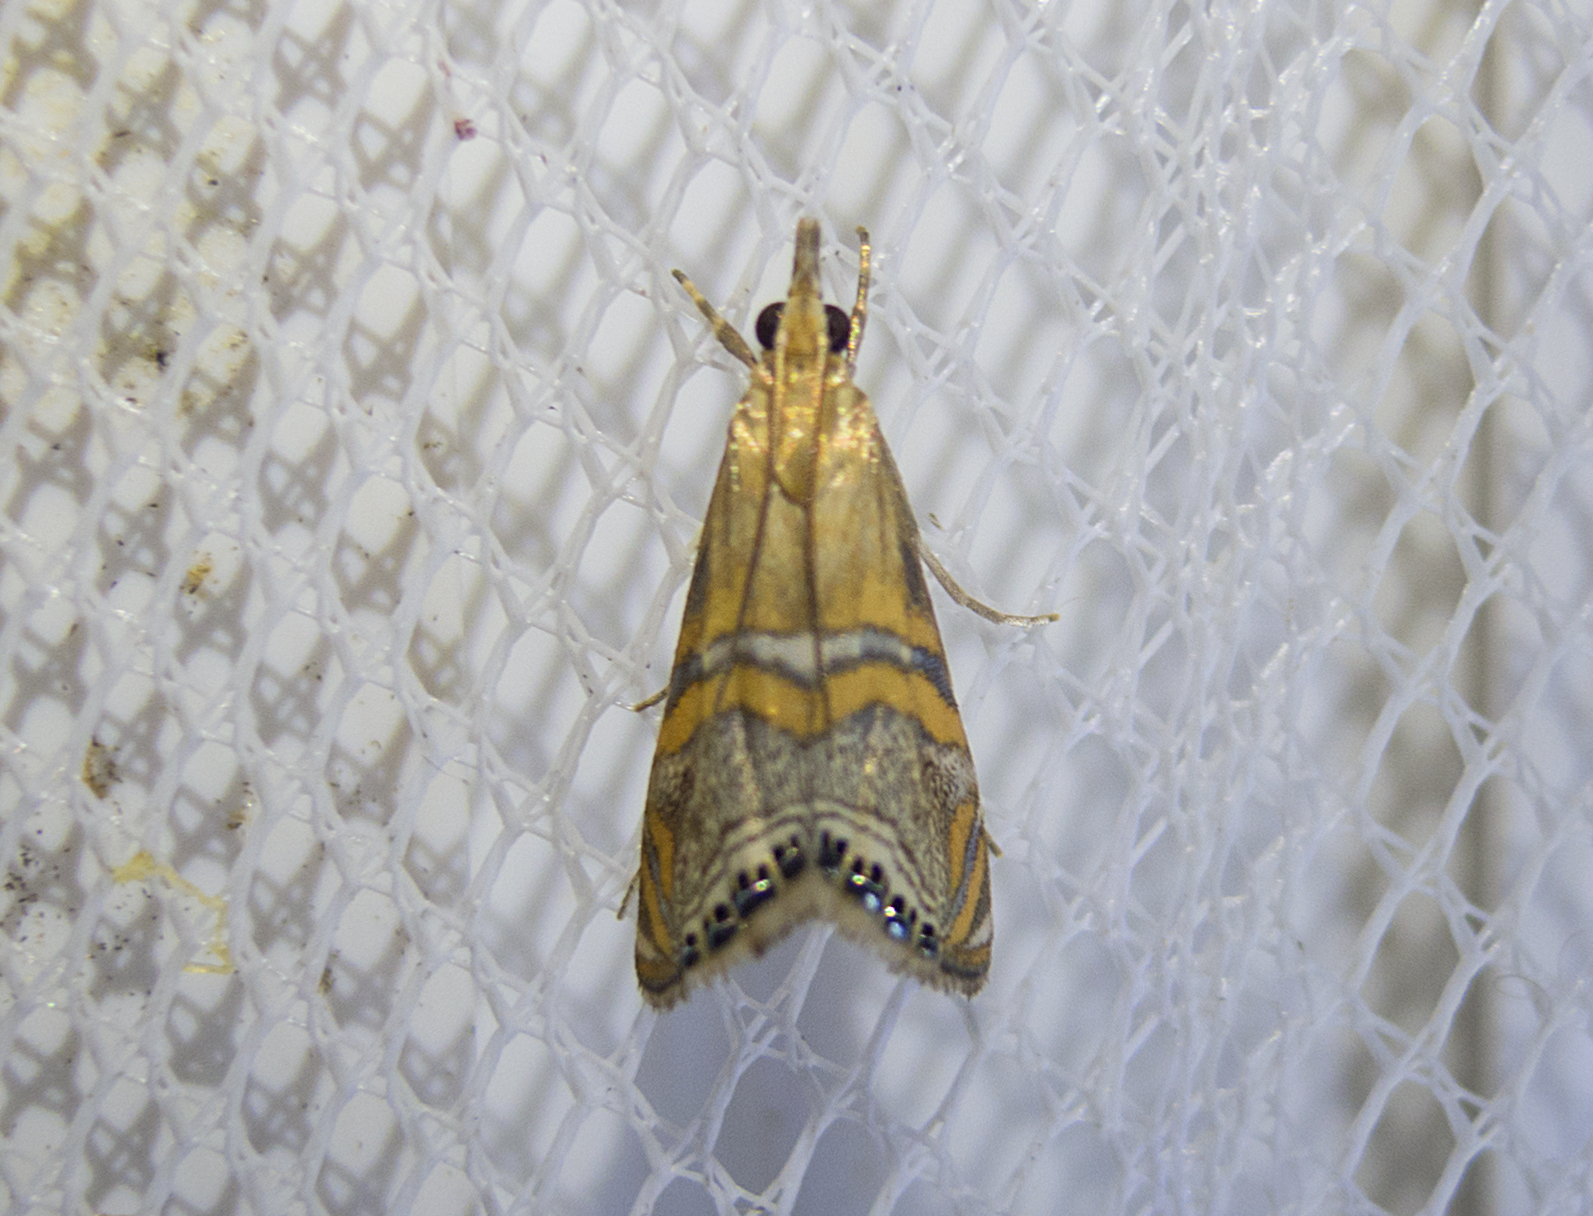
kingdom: Animalia
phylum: Arthropoda
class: Insecta
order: Lepidoptera
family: Crambidae
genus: Euchromius
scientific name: Euchromius bella
